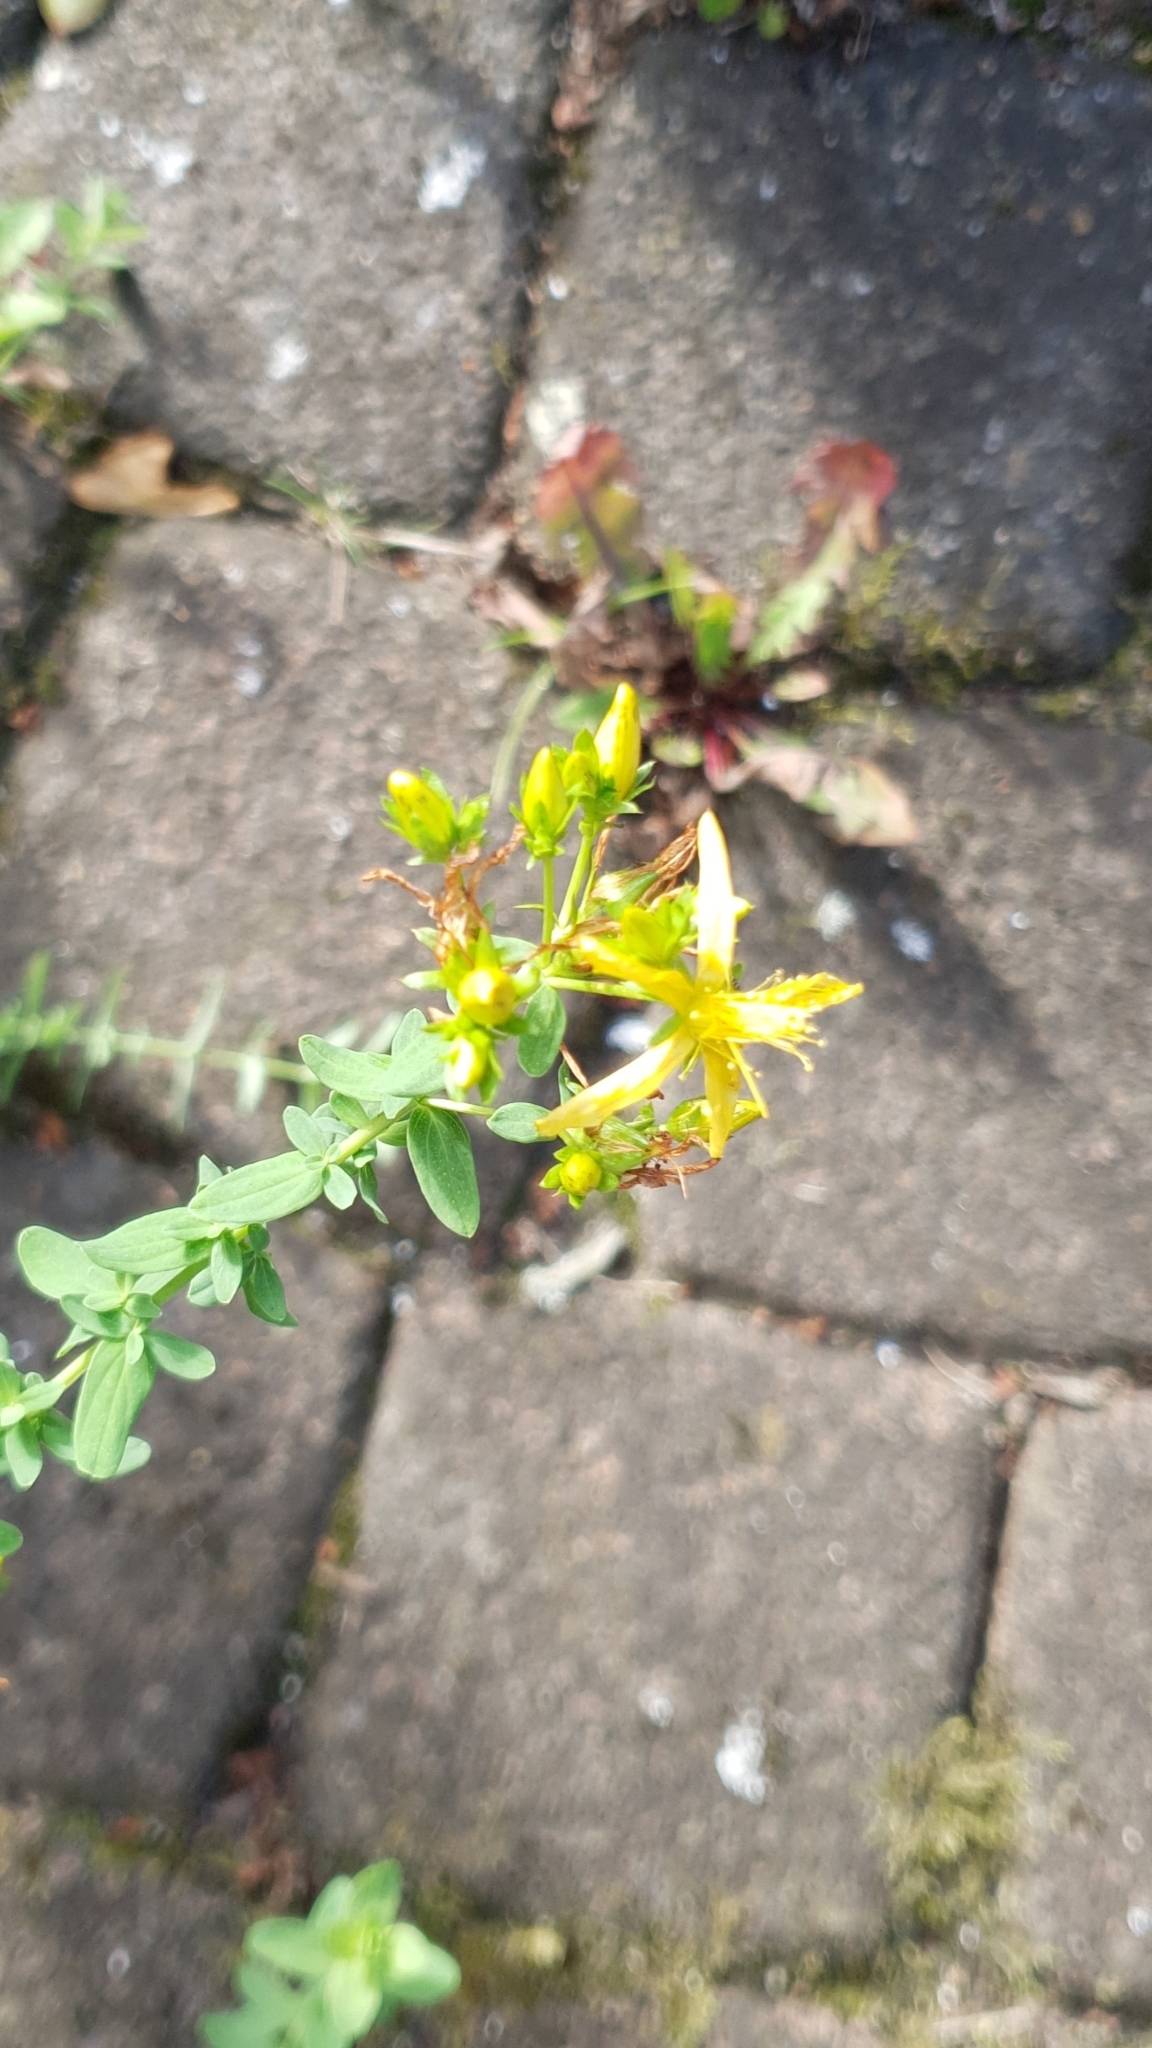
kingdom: Plantae
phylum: Tracheophyta
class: Magnoliopsida
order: Malpighiales
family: Hypericaceae
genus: Hypericum
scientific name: Hypericum perforatum
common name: Common st. johnswort
